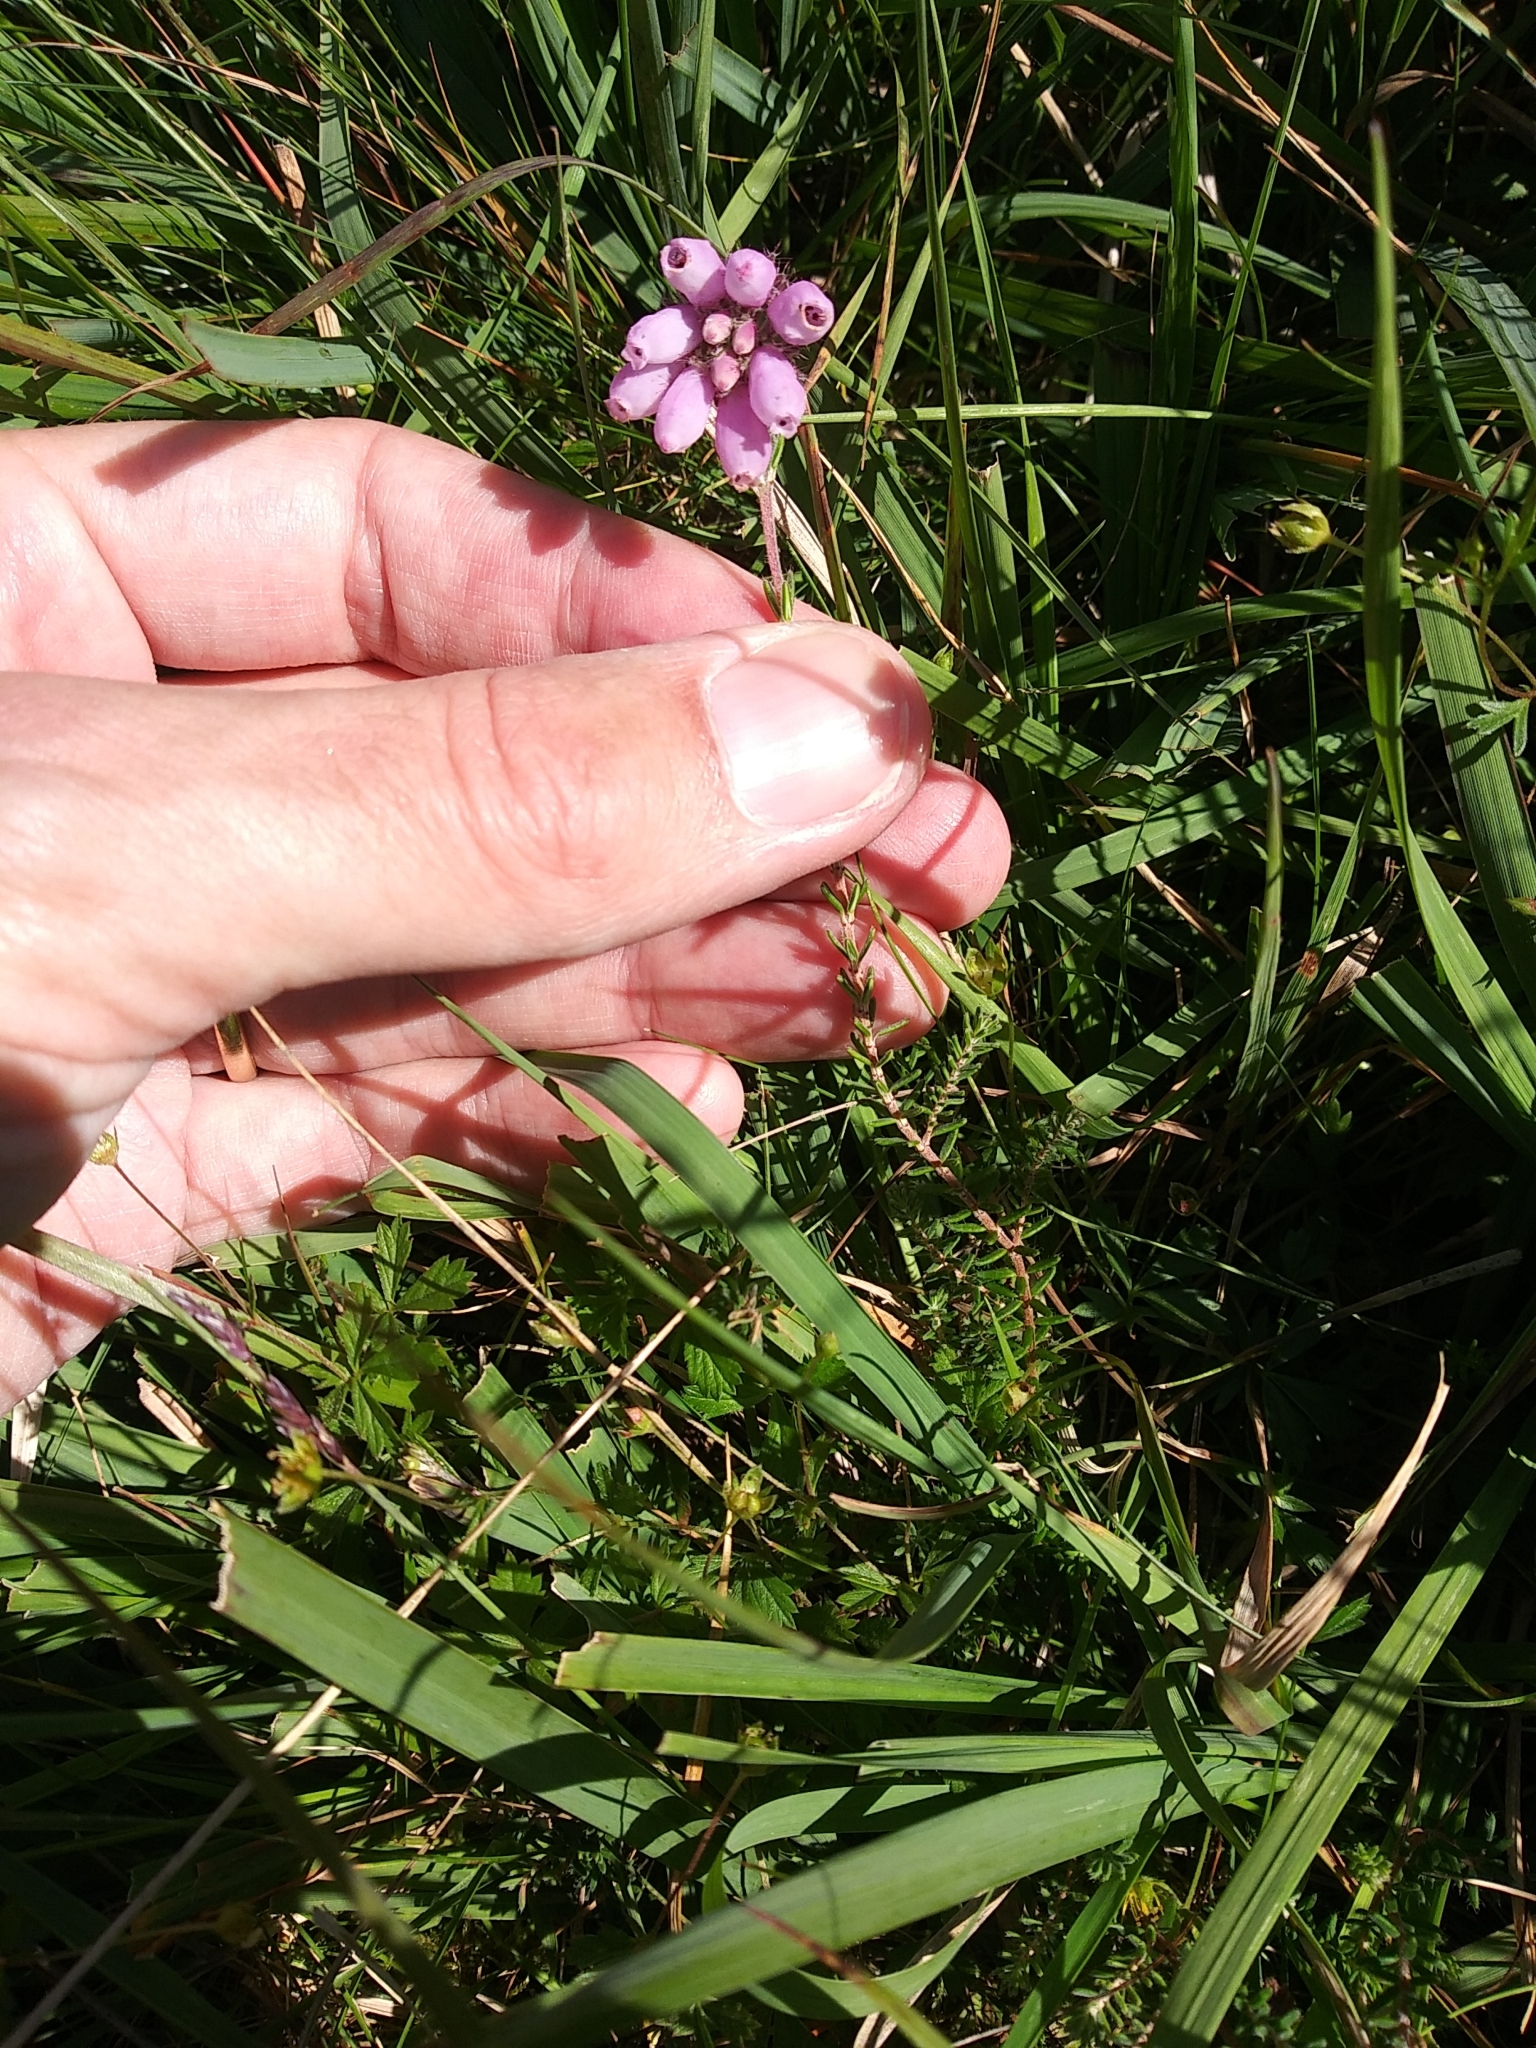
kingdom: Plantae
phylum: Tracheophyta
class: Magnoliopsida
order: Ericales
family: Ericaceae
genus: Erica
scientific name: Erica tetralix
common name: Cross-leaved heath
